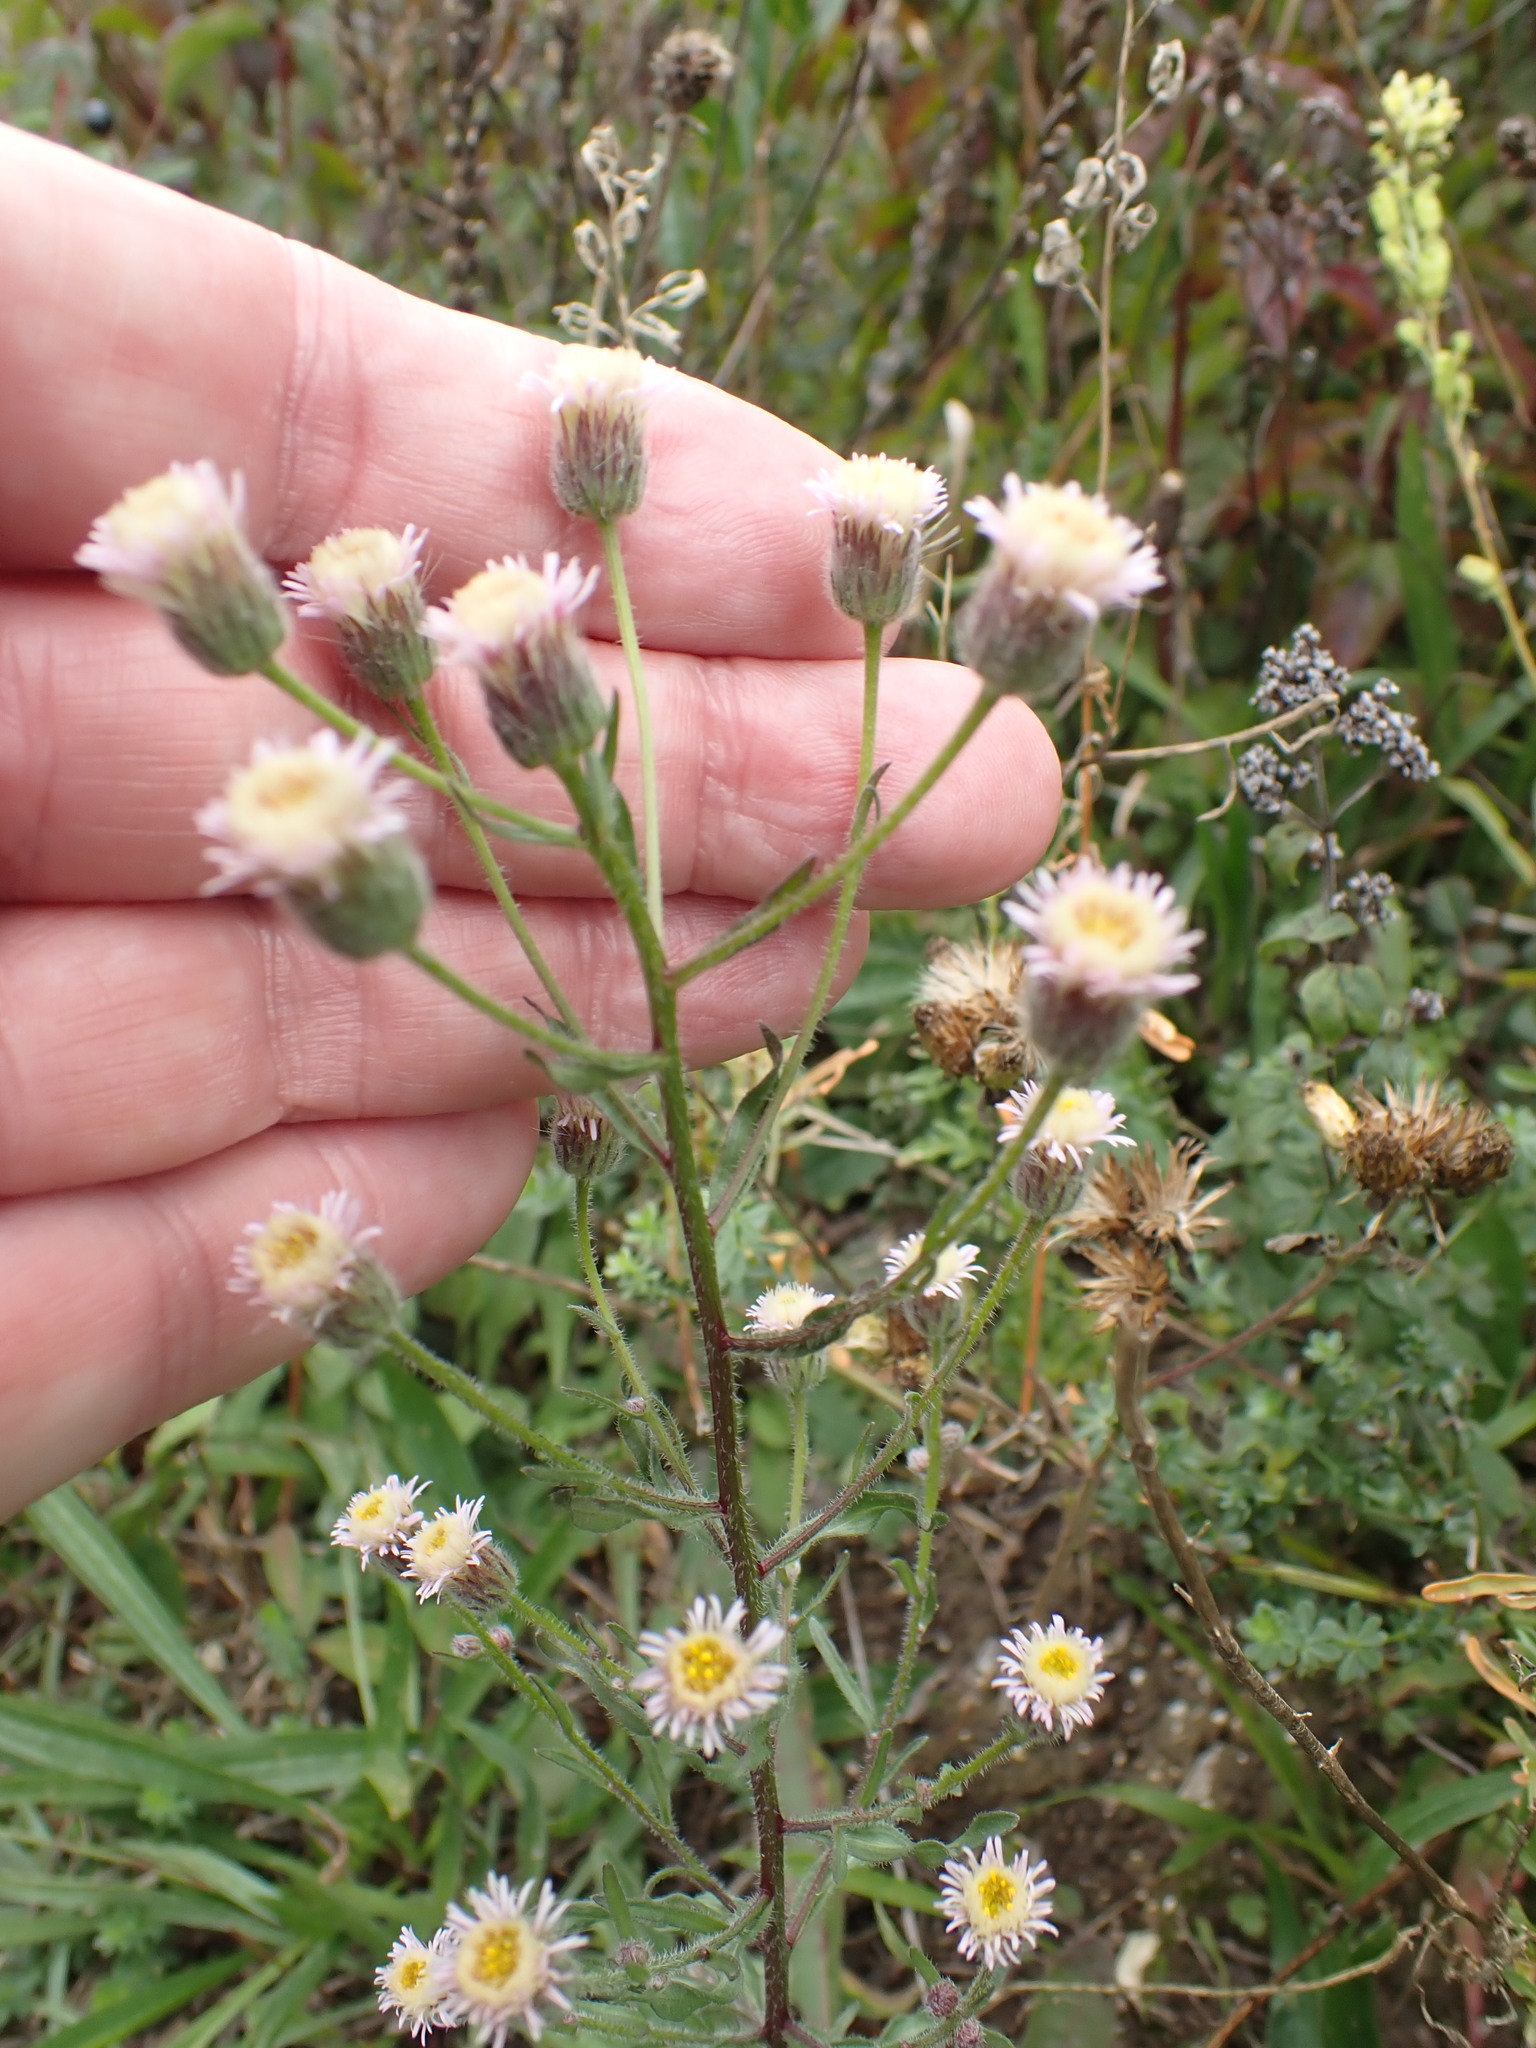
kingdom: Plantae
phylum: Tracheophyta
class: Magnoliopsida
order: Asterales
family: Asteraceae
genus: Erigeron
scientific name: Erigeron acris
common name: Blue fleabane
